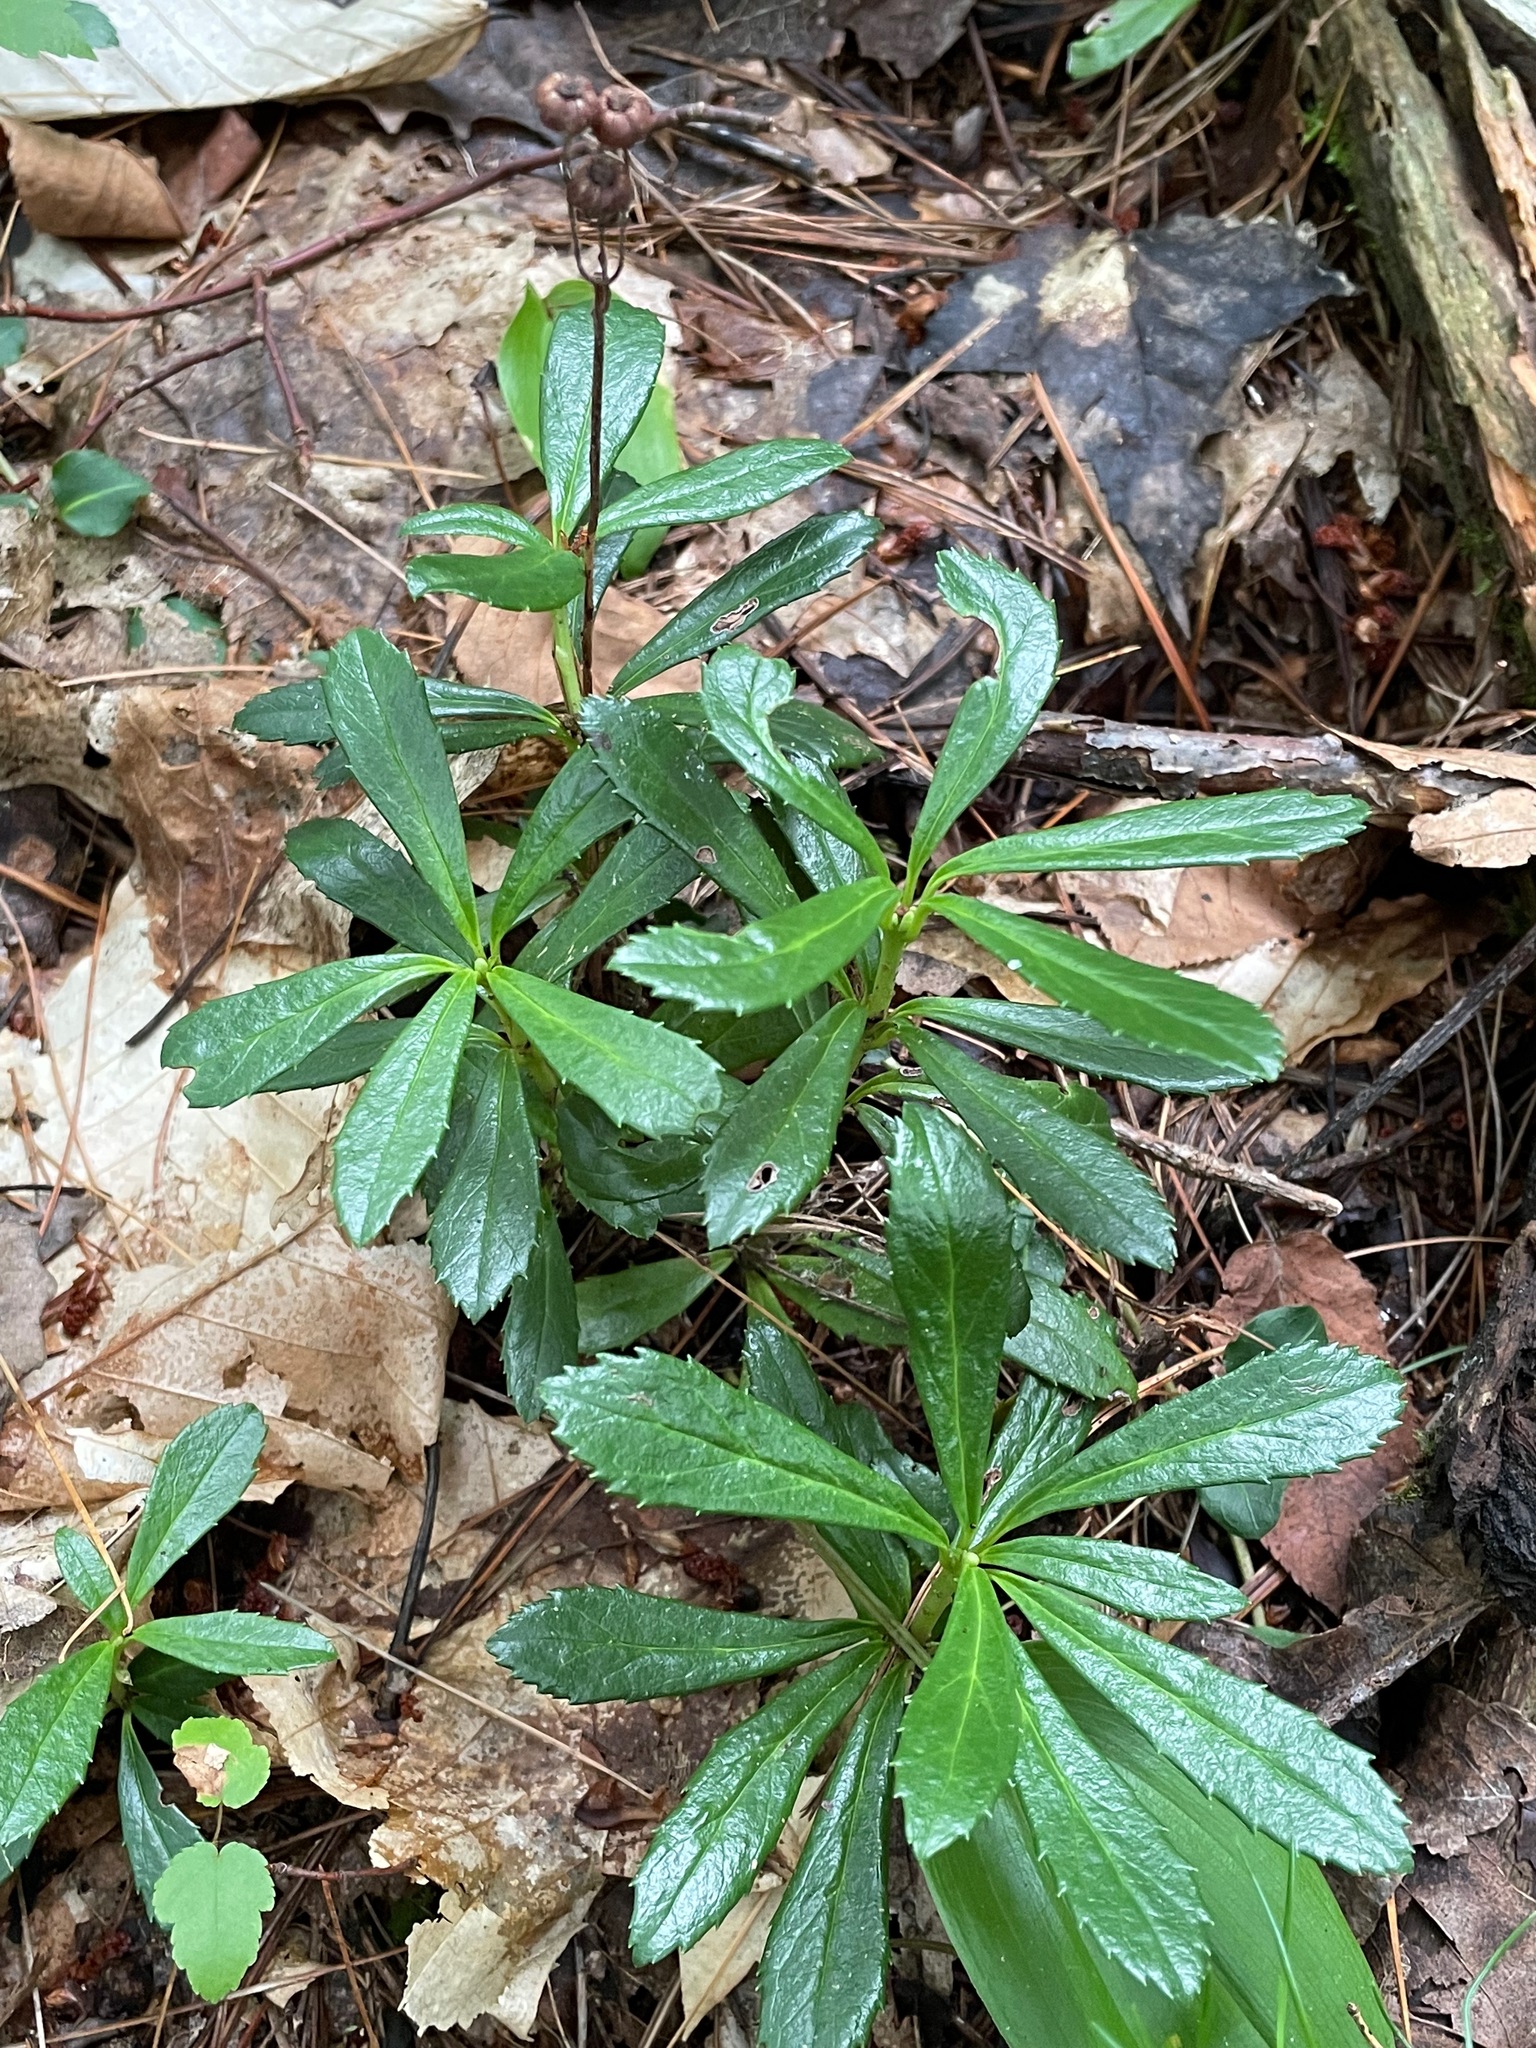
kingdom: Plantae
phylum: Tracheophyta
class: Magnoliopsida
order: Ericales
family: Ericaceae
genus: Chimaphila
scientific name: Chimaphila umbellata
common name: Pipsissewa
